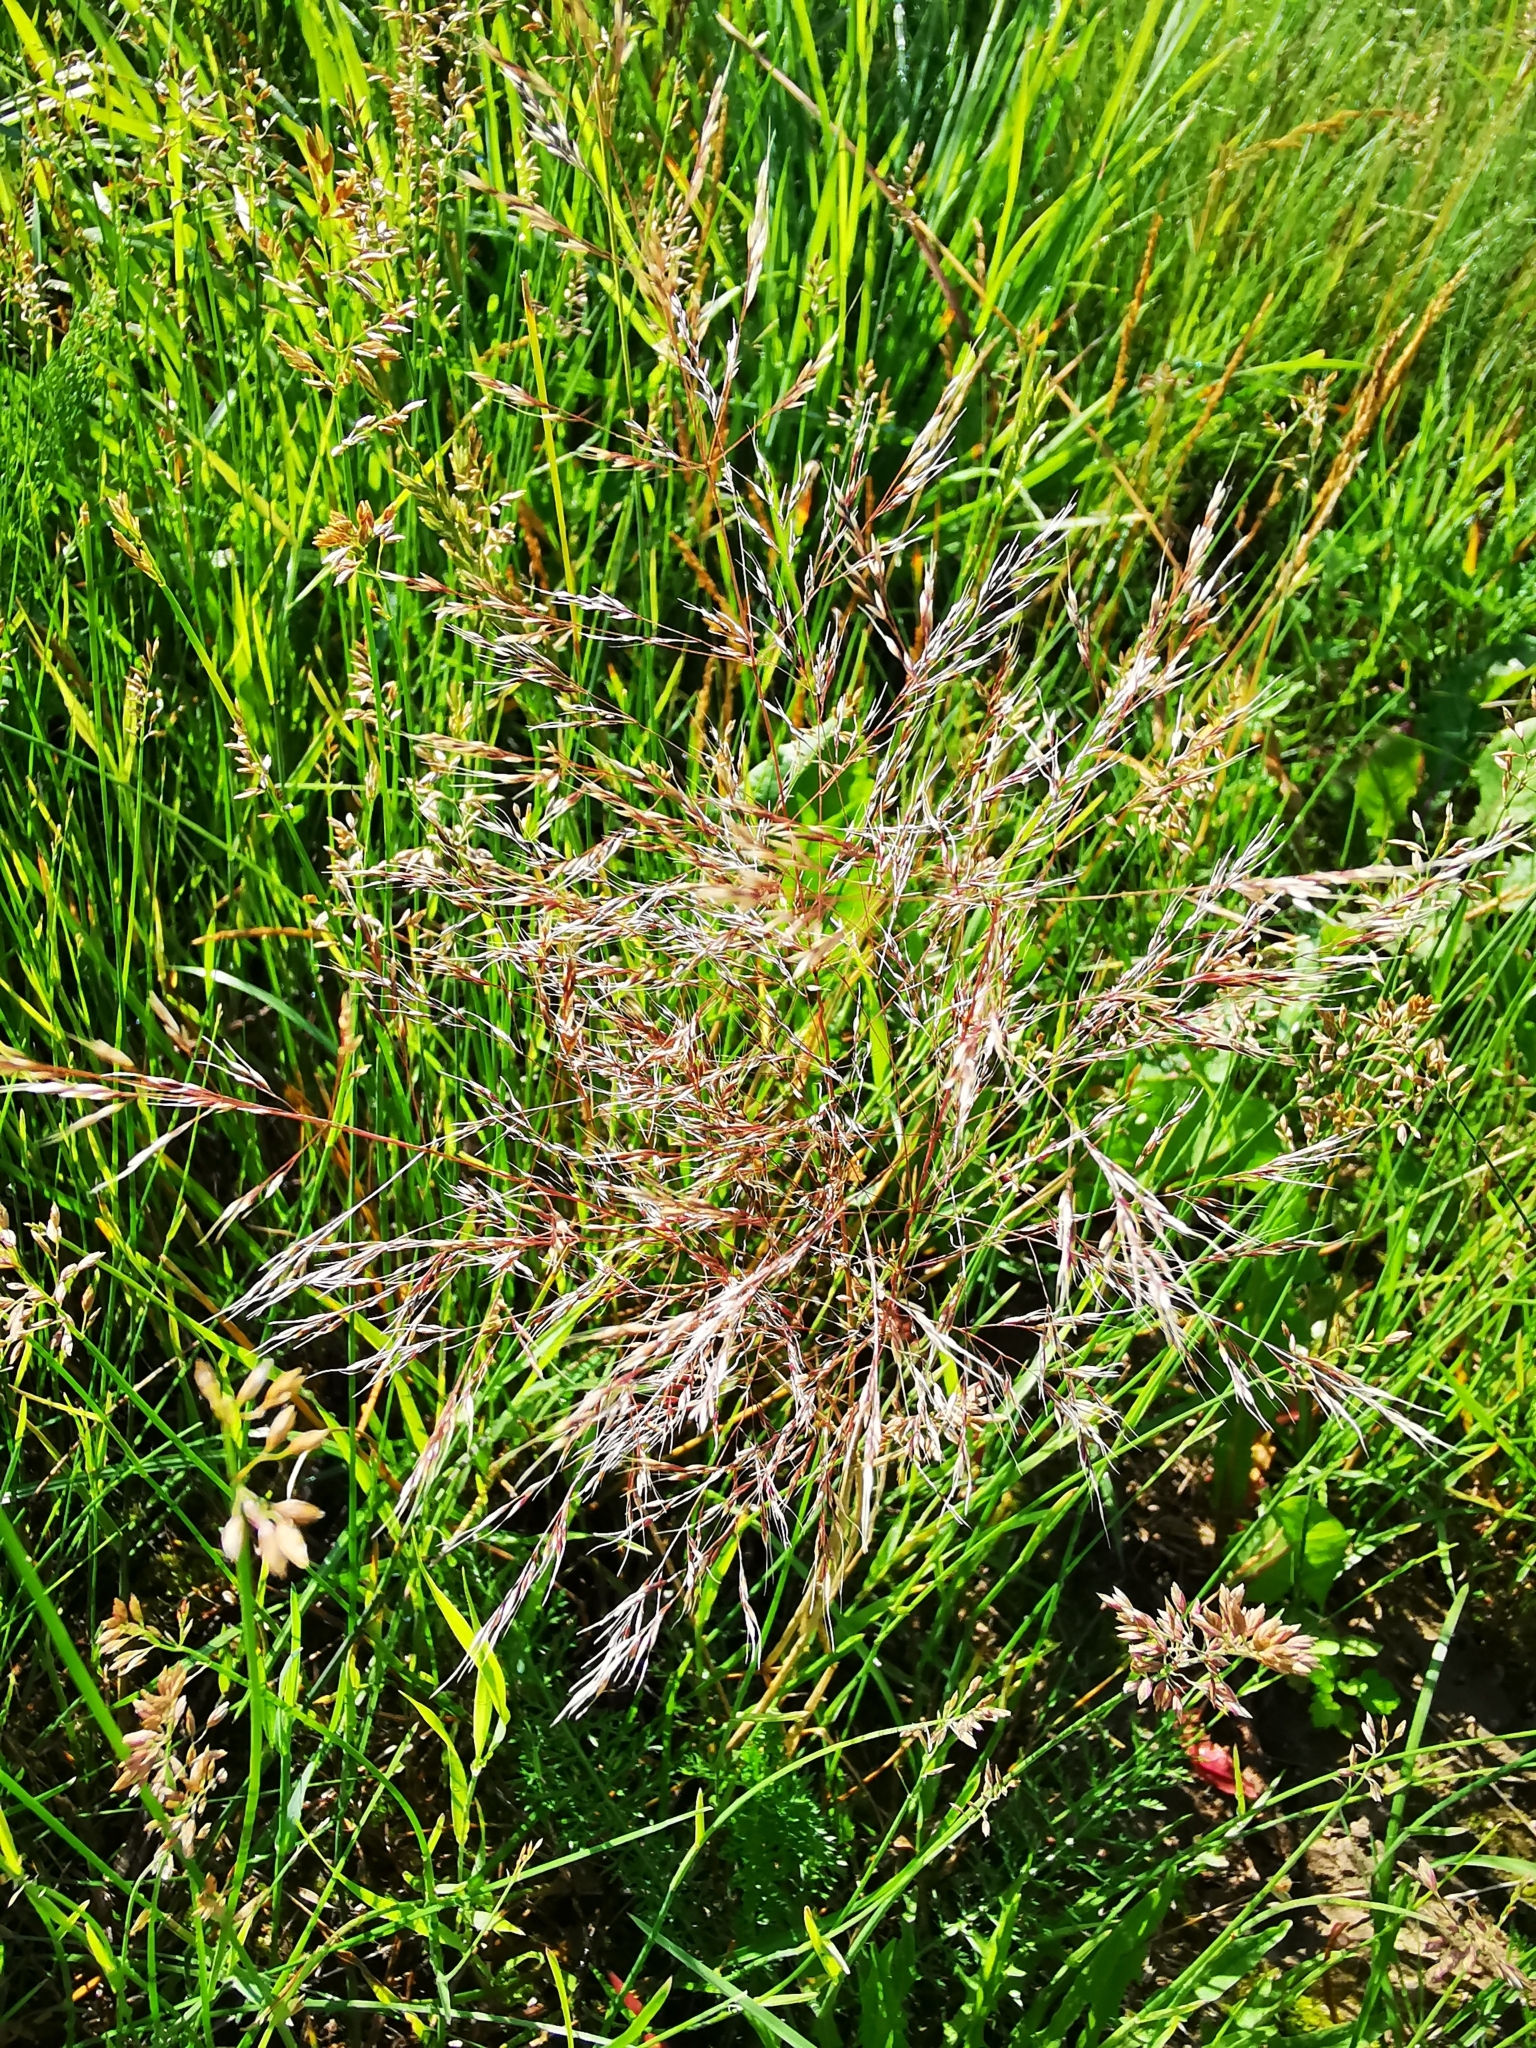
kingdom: Plantae
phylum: Tracheophyta
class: Liliopsida
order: Poales
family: Poaceae
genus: Apera
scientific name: Apera spica-venti
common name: Loose silky-bent
